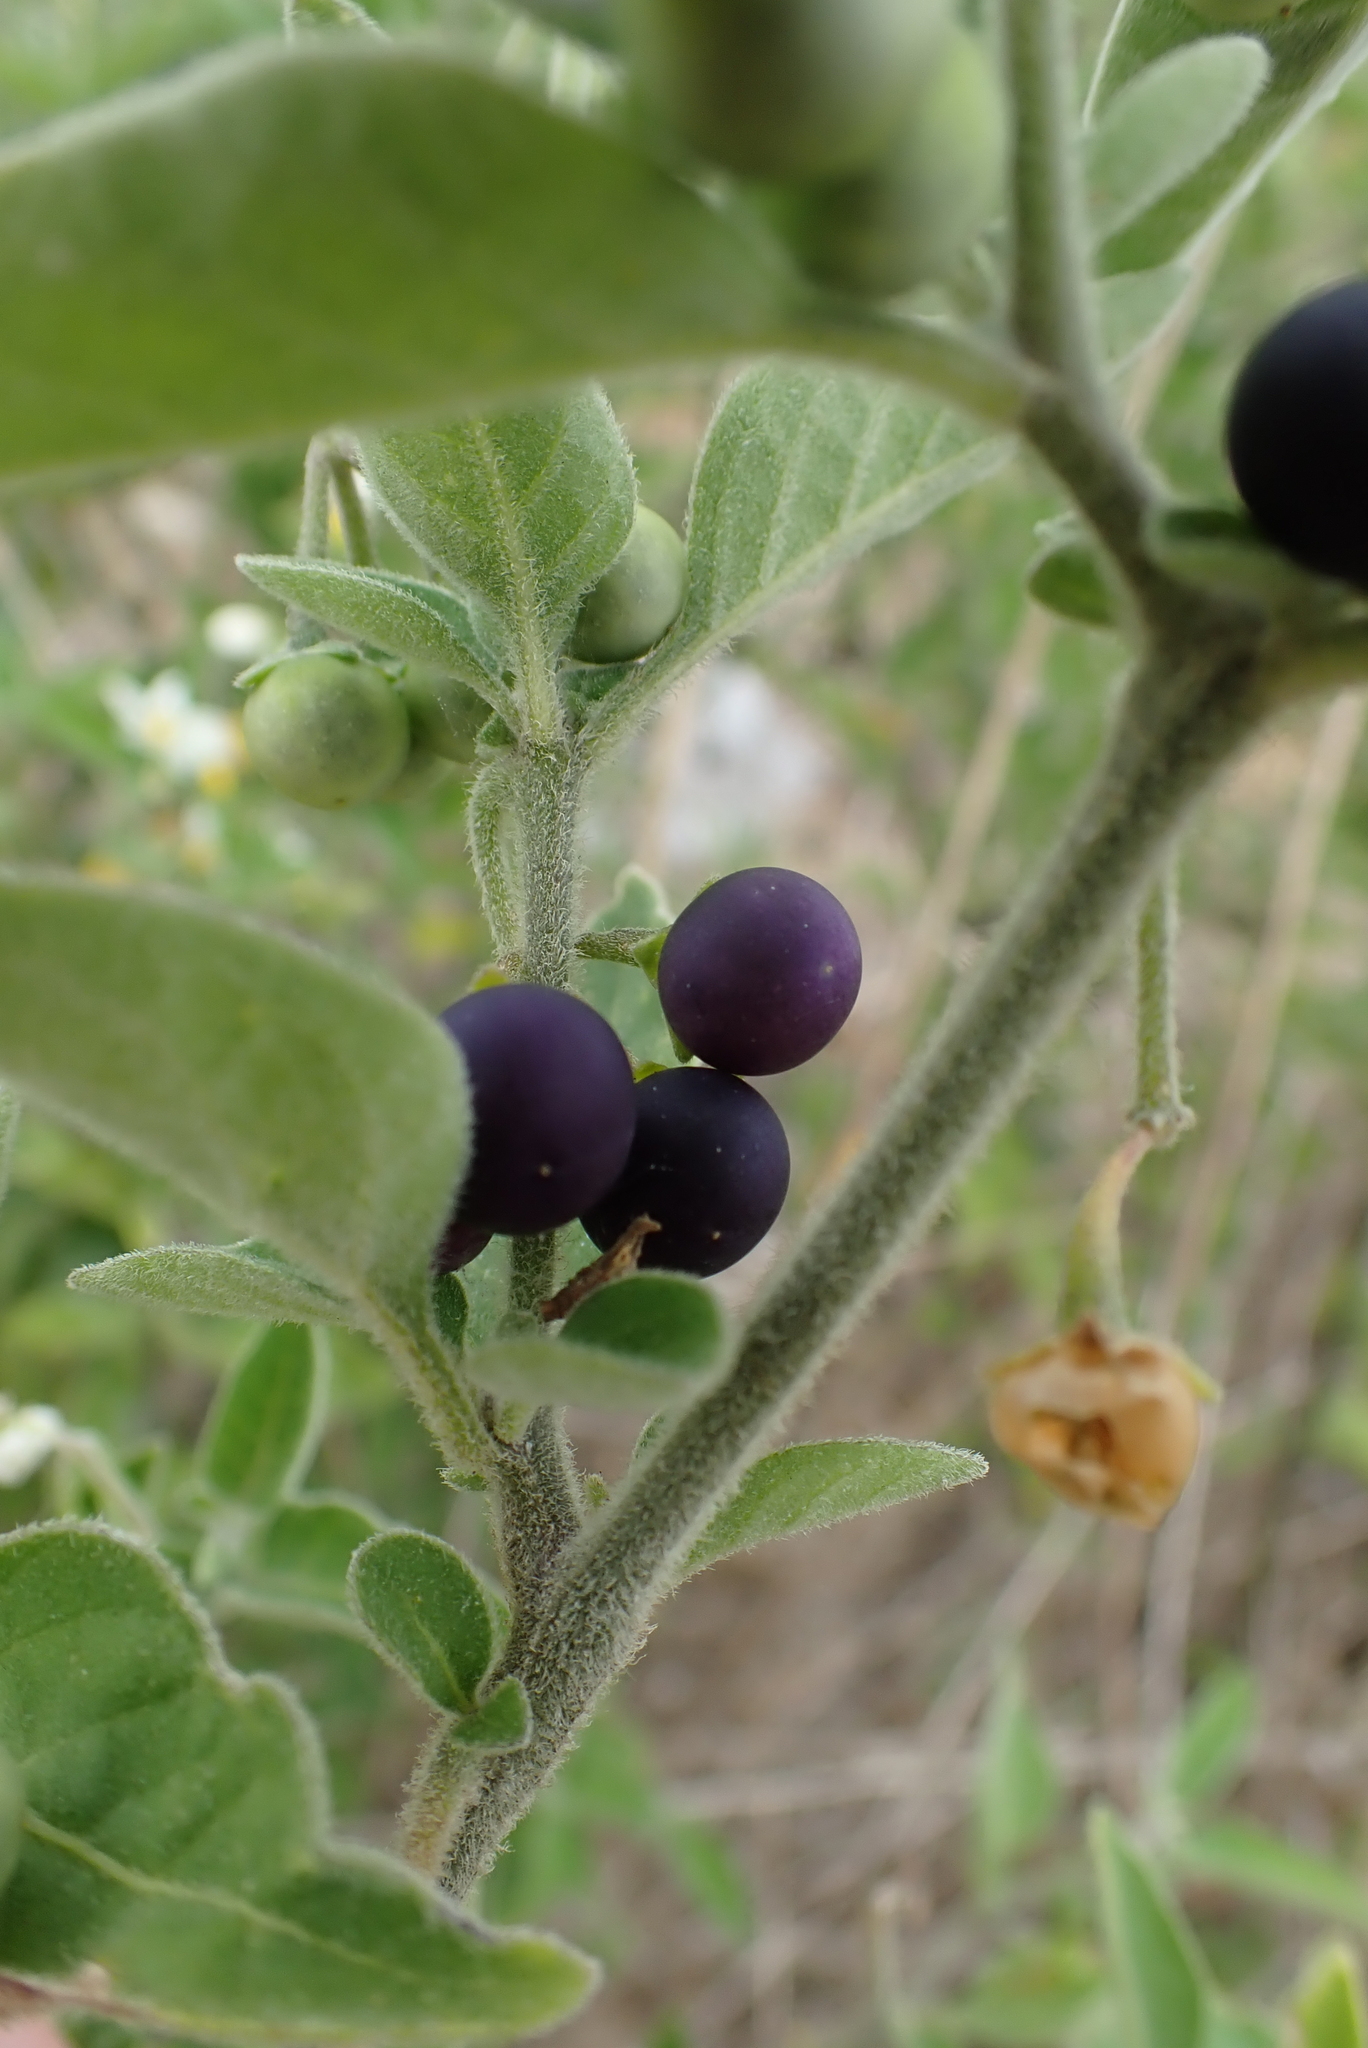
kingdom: Plantae
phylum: Tracheophyta
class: Magnoliopsida
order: Solanales
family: Solanaceae
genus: Solanum
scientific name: Solanum chenopodioides
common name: Tall nightshade
